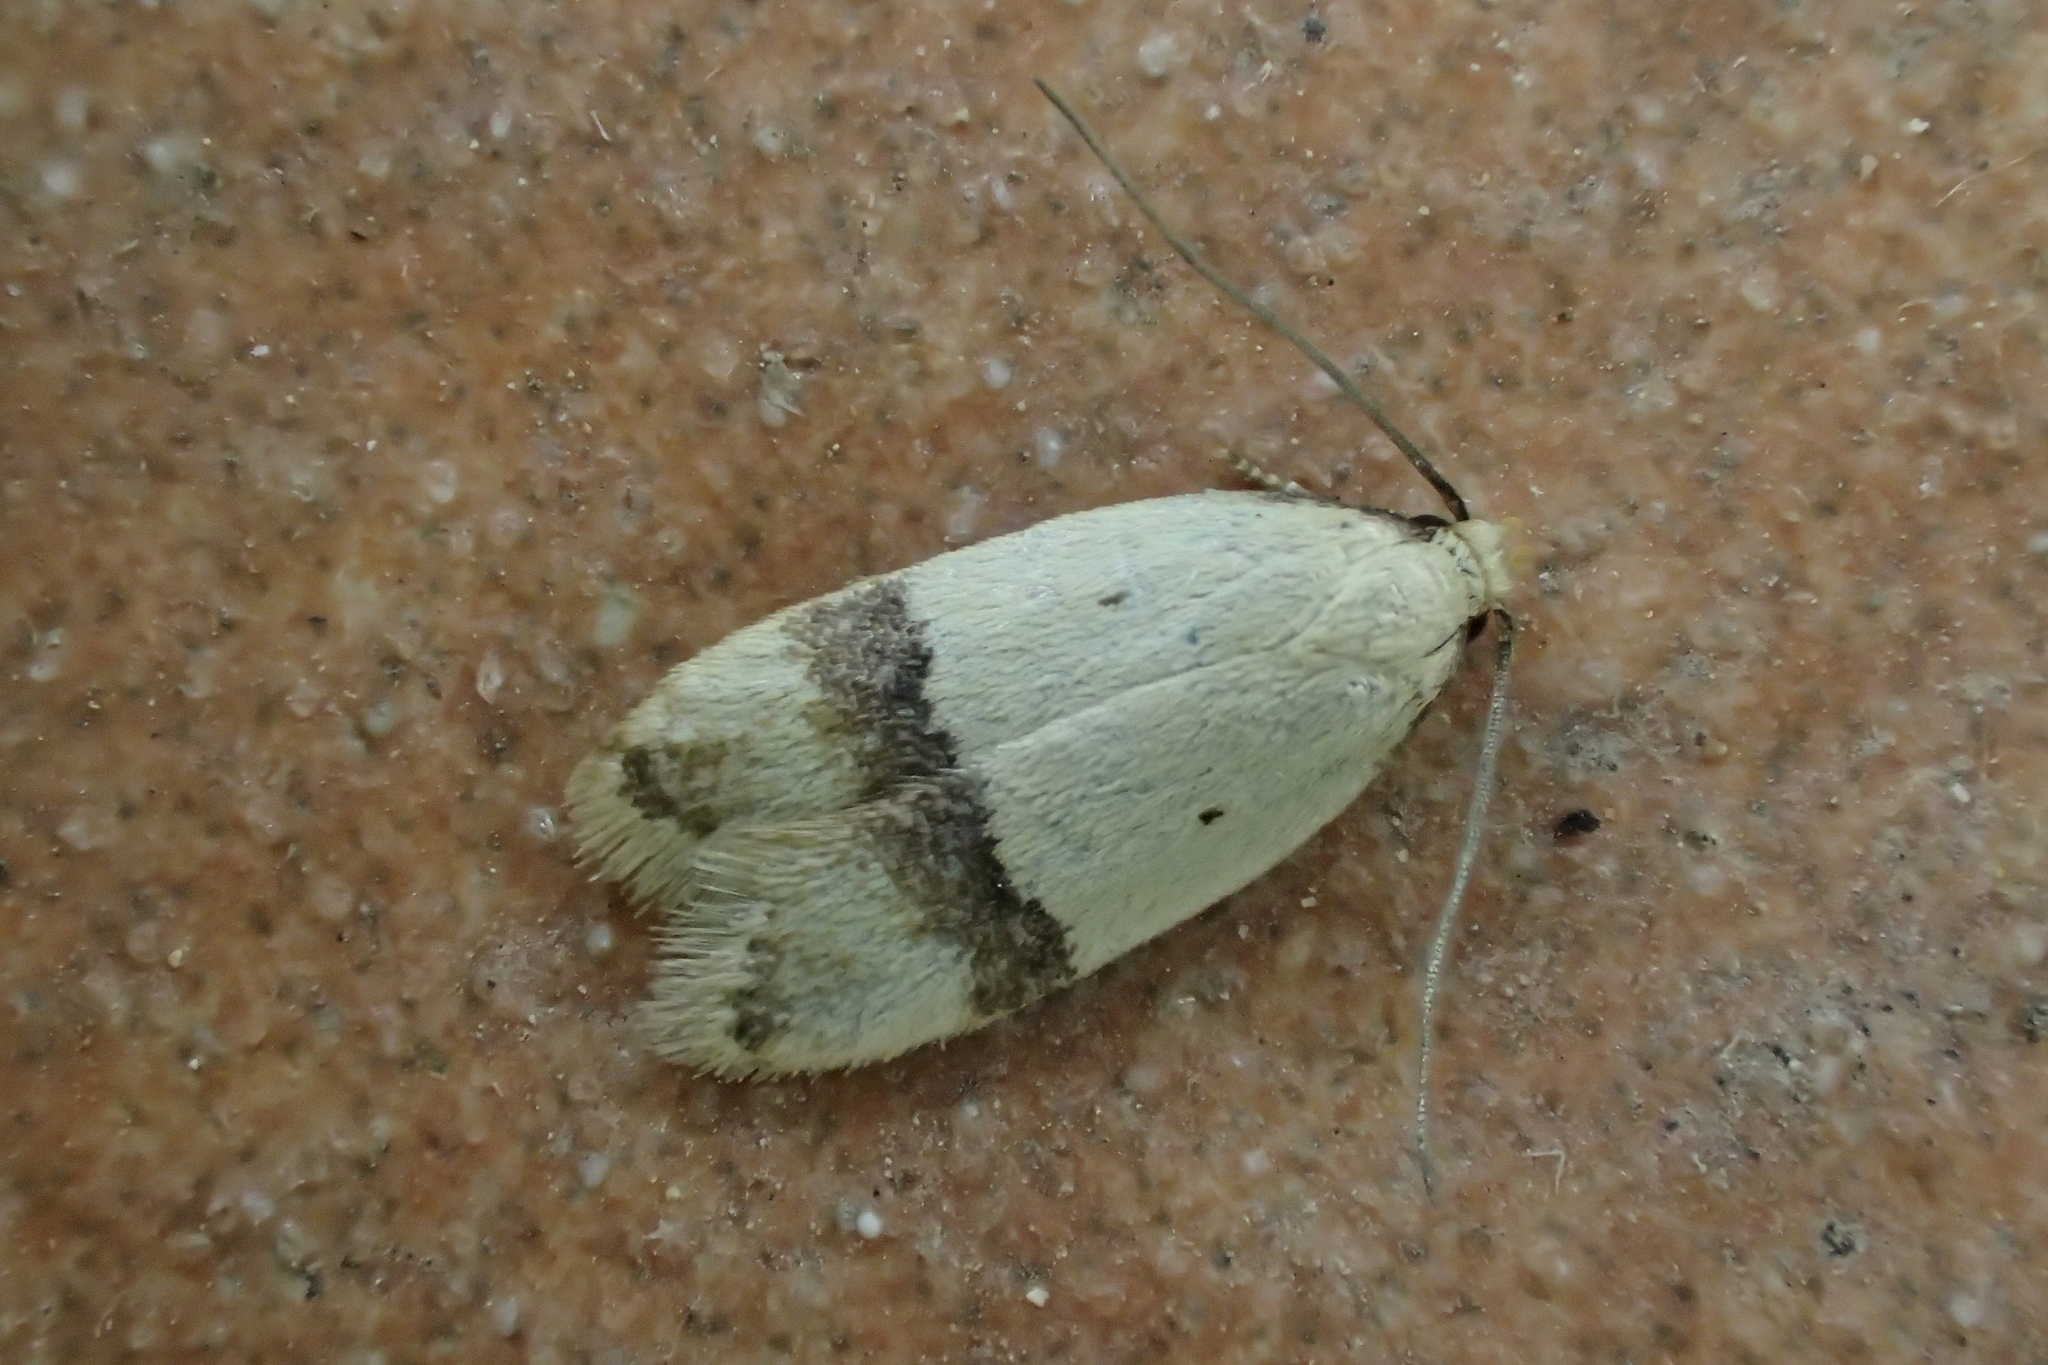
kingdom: Animalia
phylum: Arthropoda
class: Insecta
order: Lepidoptera
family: Peleopodidae
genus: Odites
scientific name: Odites kollarella
